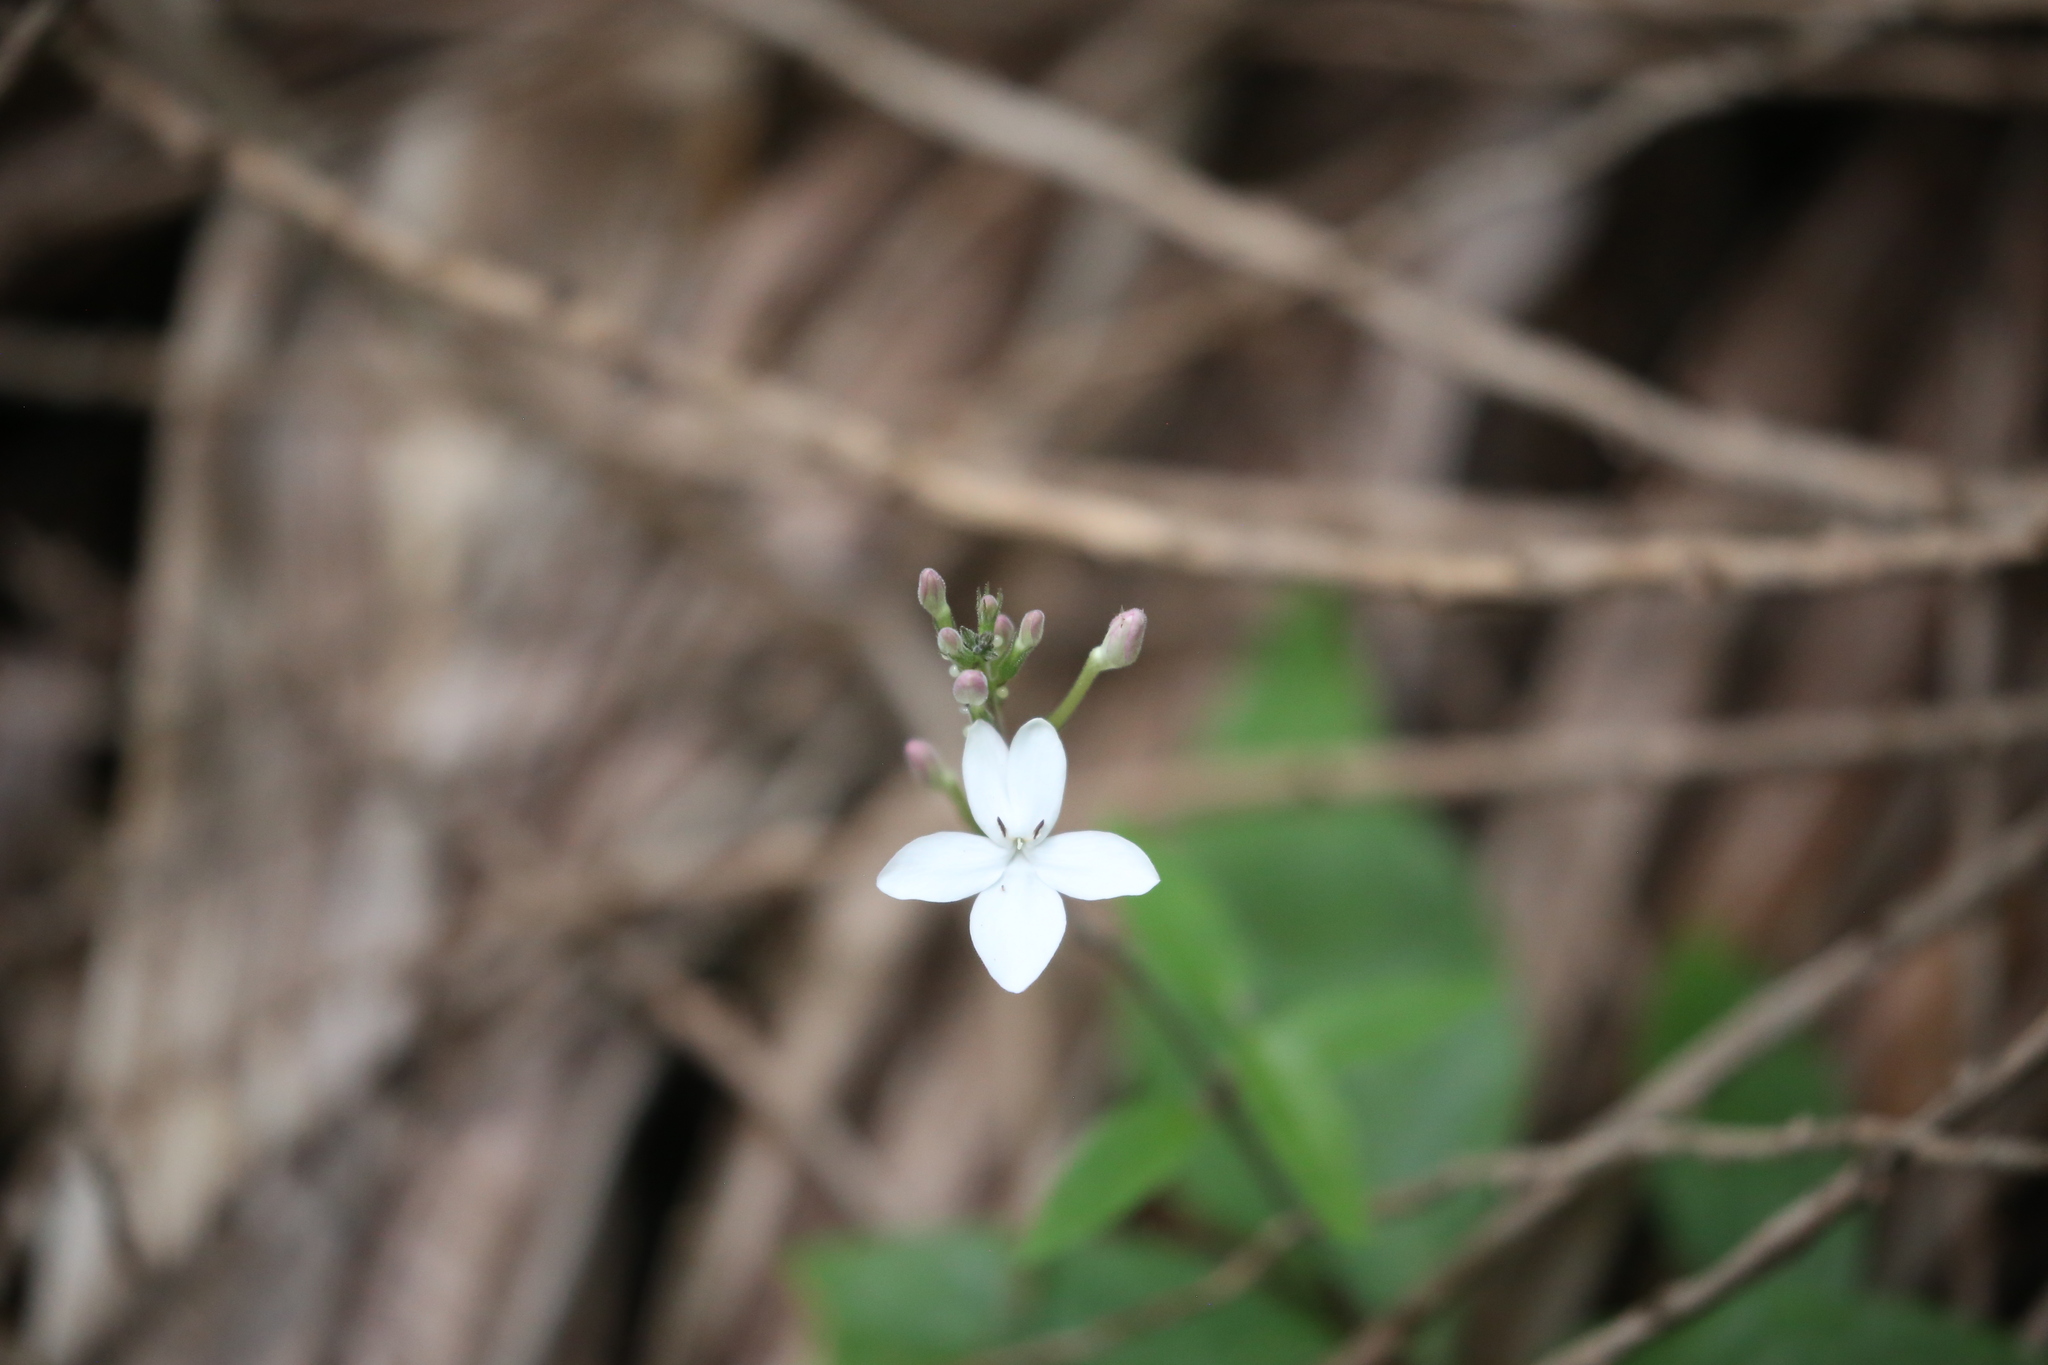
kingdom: Plantae
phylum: Tracheophyta
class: Magnoliopsida
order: Lamiales
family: Acanthaceae
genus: Pseuderanthemum
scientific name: Pseuderanthemum variabile
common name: Night and afternoon
